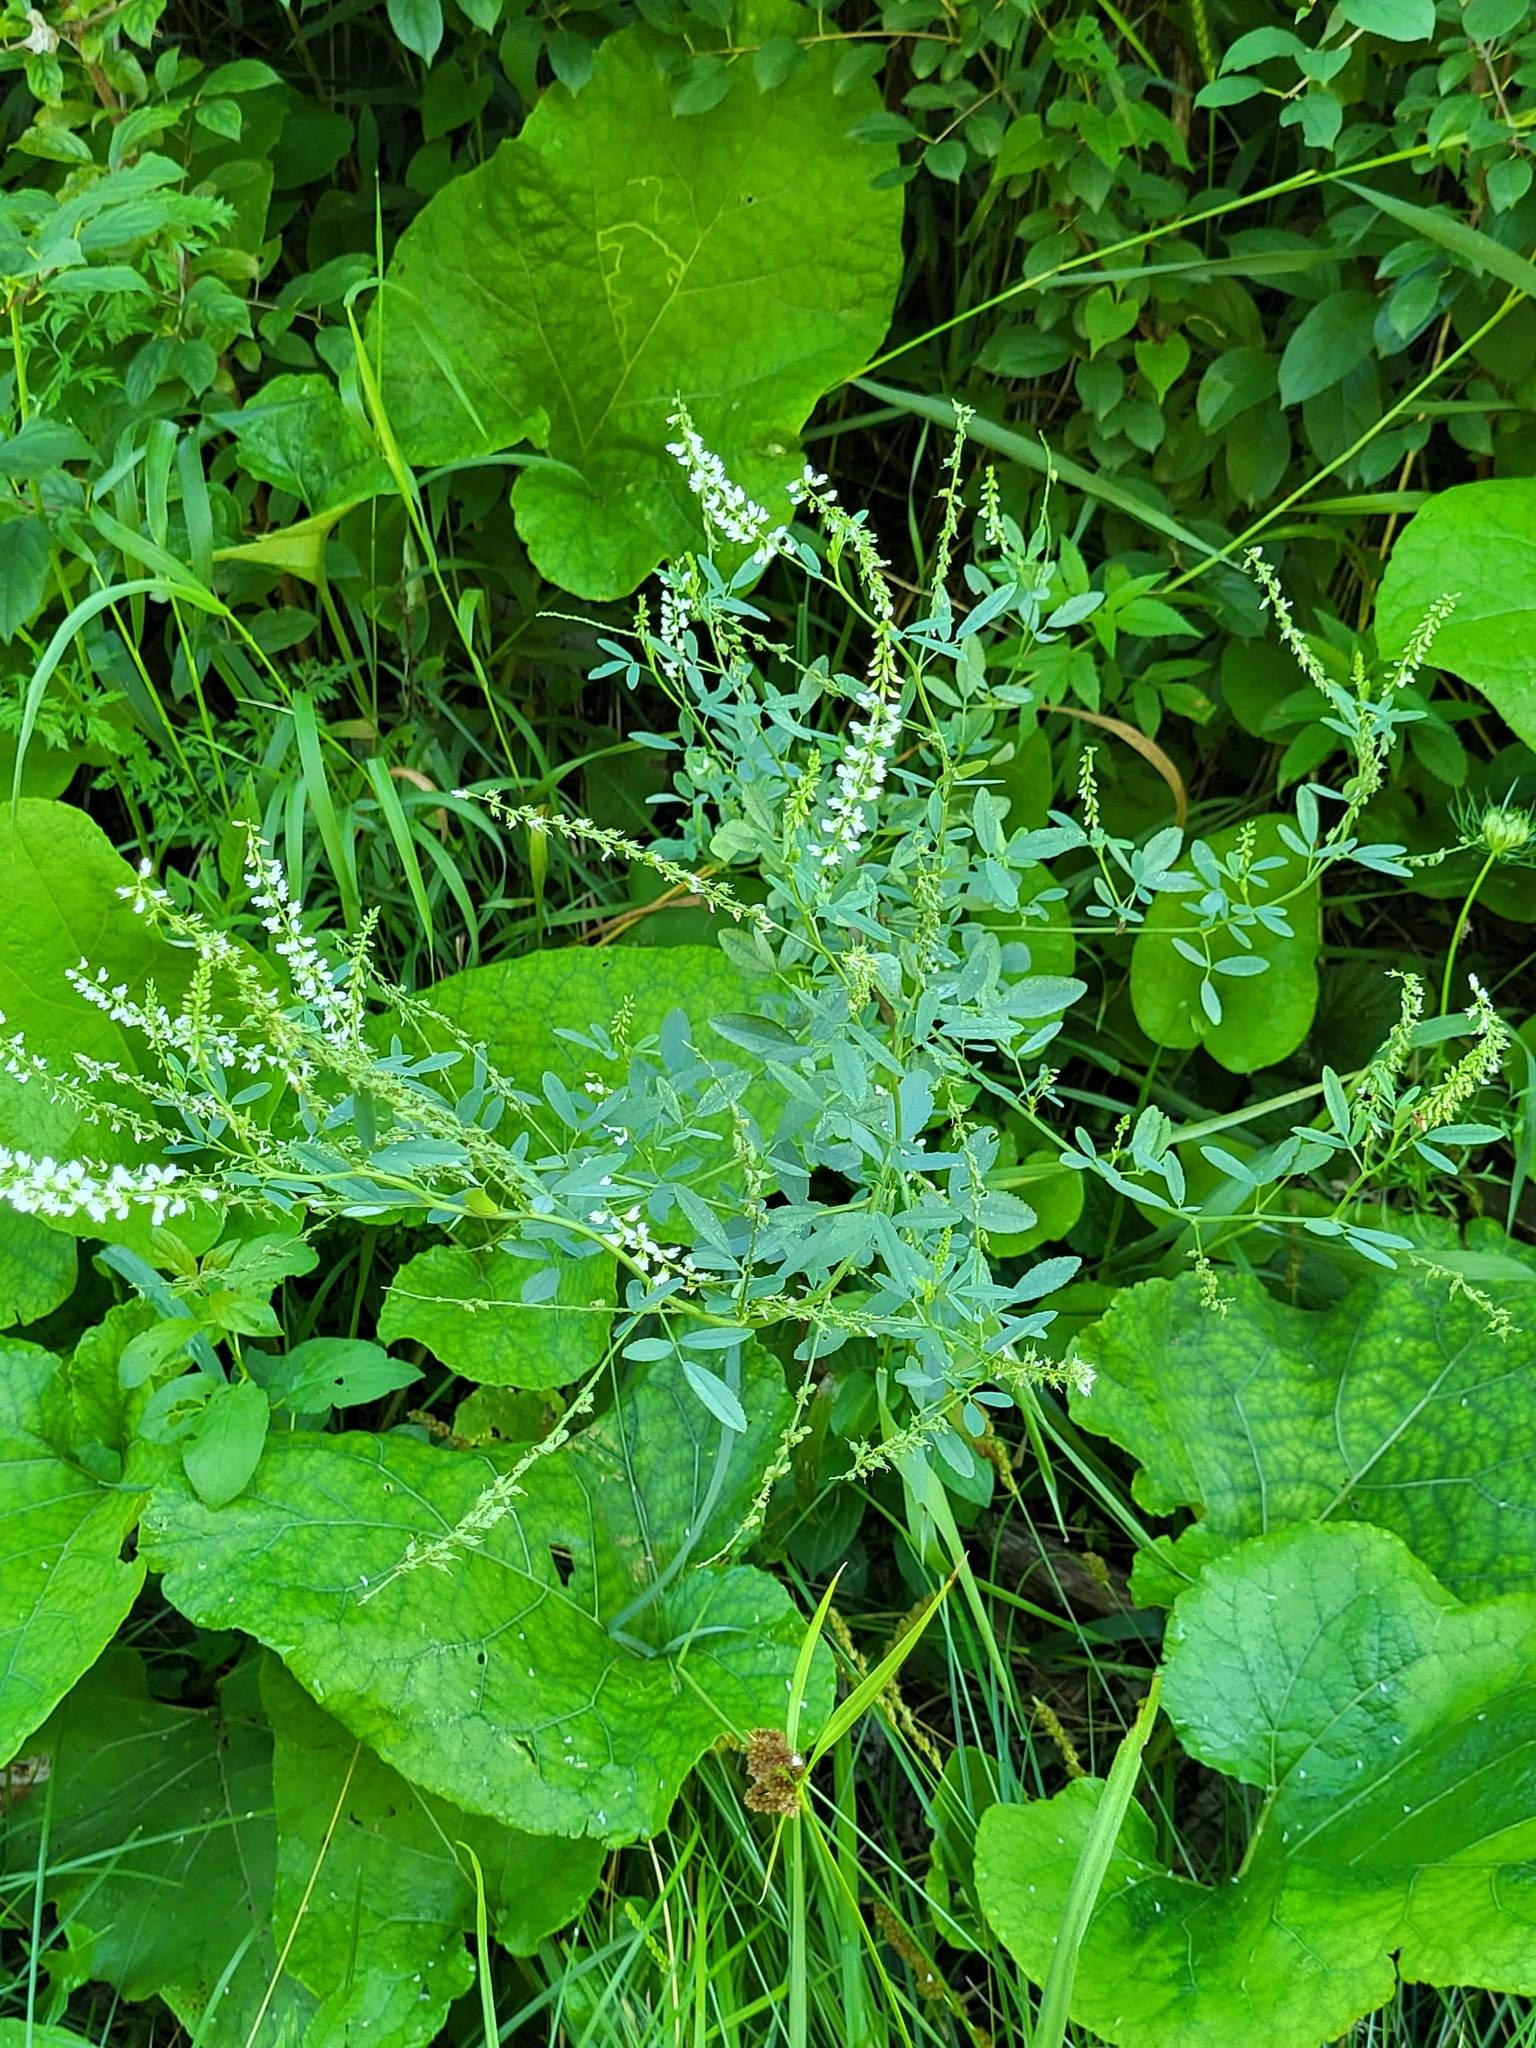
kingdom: Plantae
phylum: Tracheophyta
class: Magnoliopsida
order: Fabales
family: Fabaceae
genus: Melilotus
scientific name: Melilotus albus
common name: White melilot
